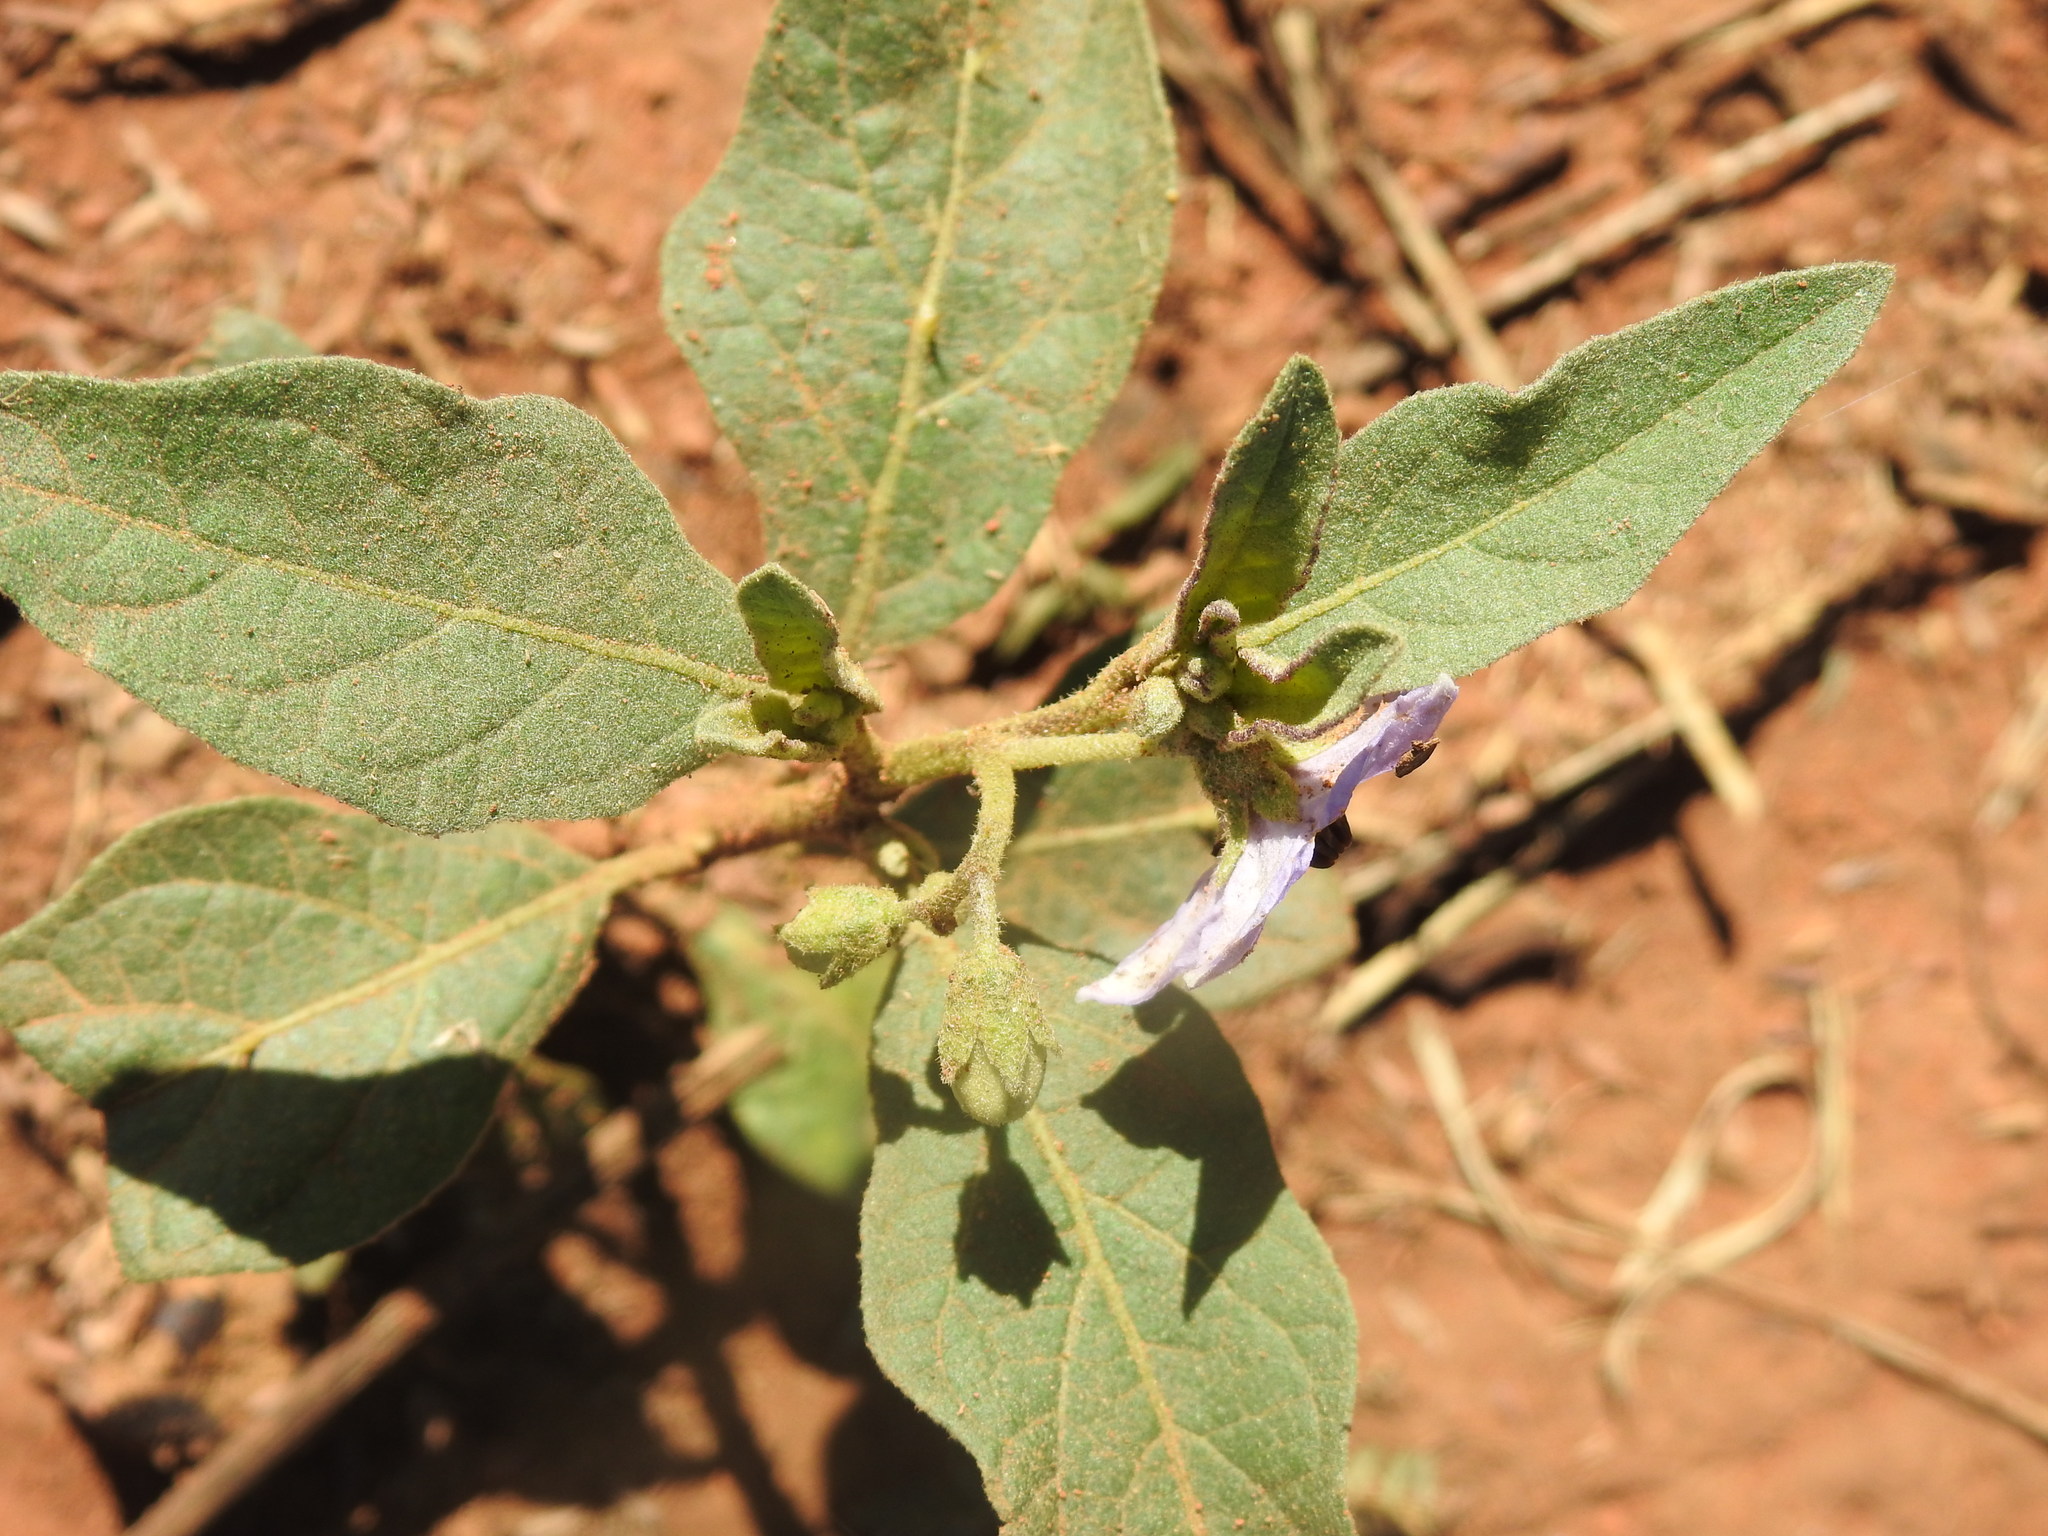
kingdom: Plantae
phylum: Tracheophyta
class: Magnoliopsida
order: Solanales
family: Solanaceae
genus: Solanum
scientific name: Solanum campylacanthum
